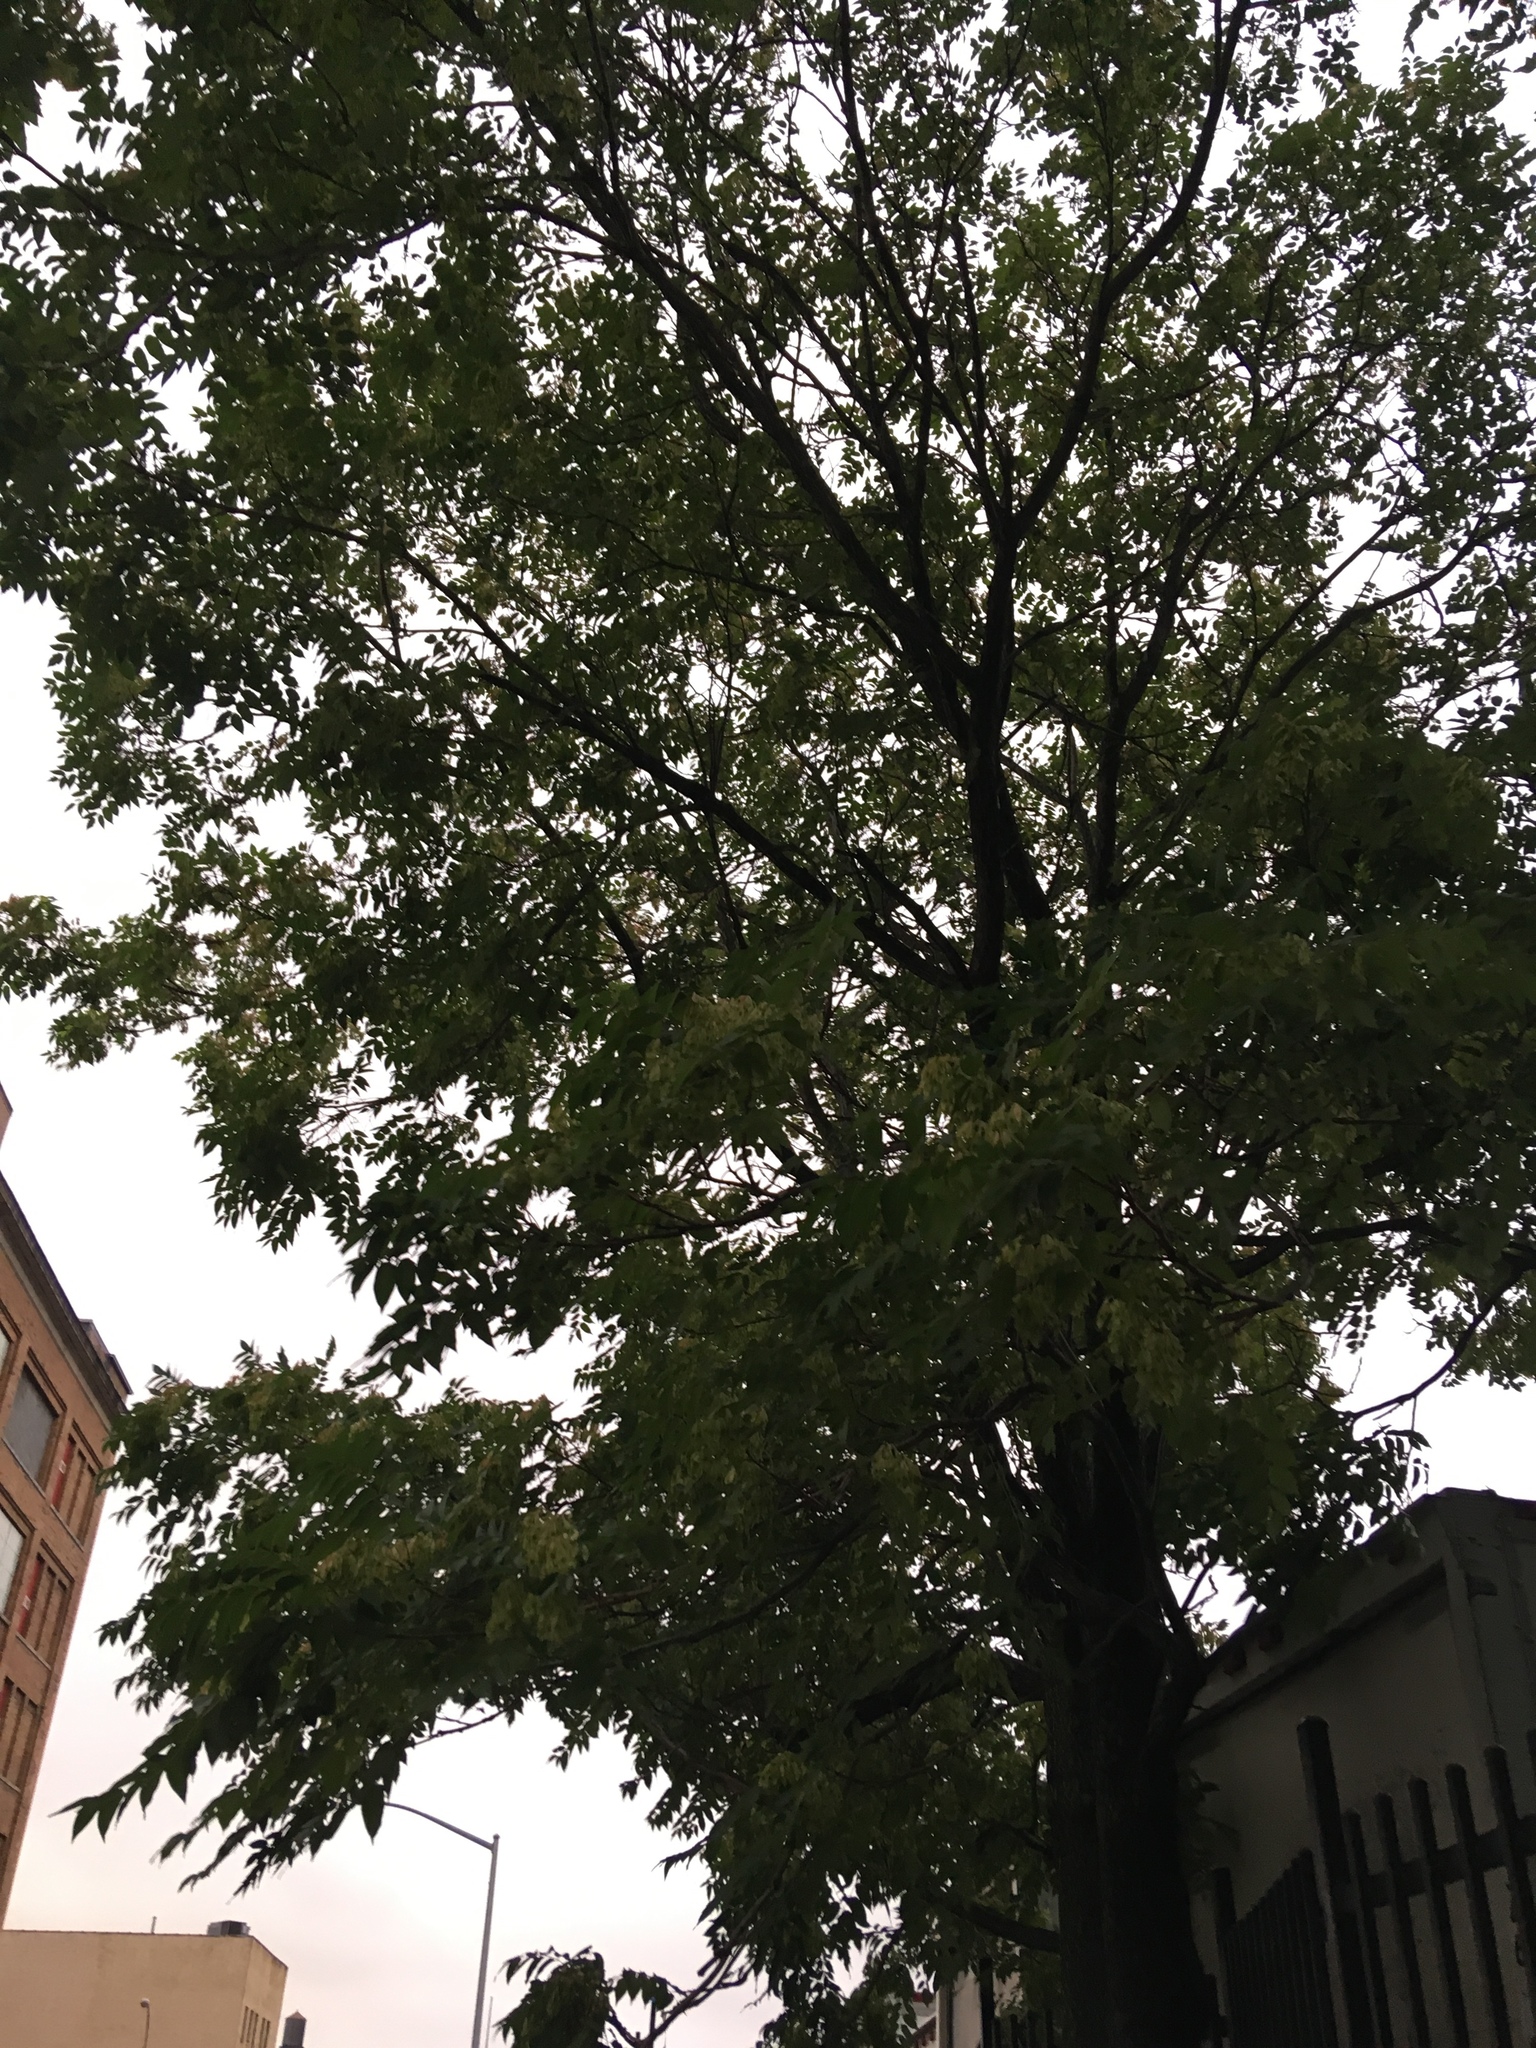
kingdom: Plantae
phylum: Tracheophyta
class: Magnoliopsida
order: Sapindales
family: Simaroubaceae
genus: Ailanthus
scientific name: Ailanthus altissima
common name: Tree-of-heaven
